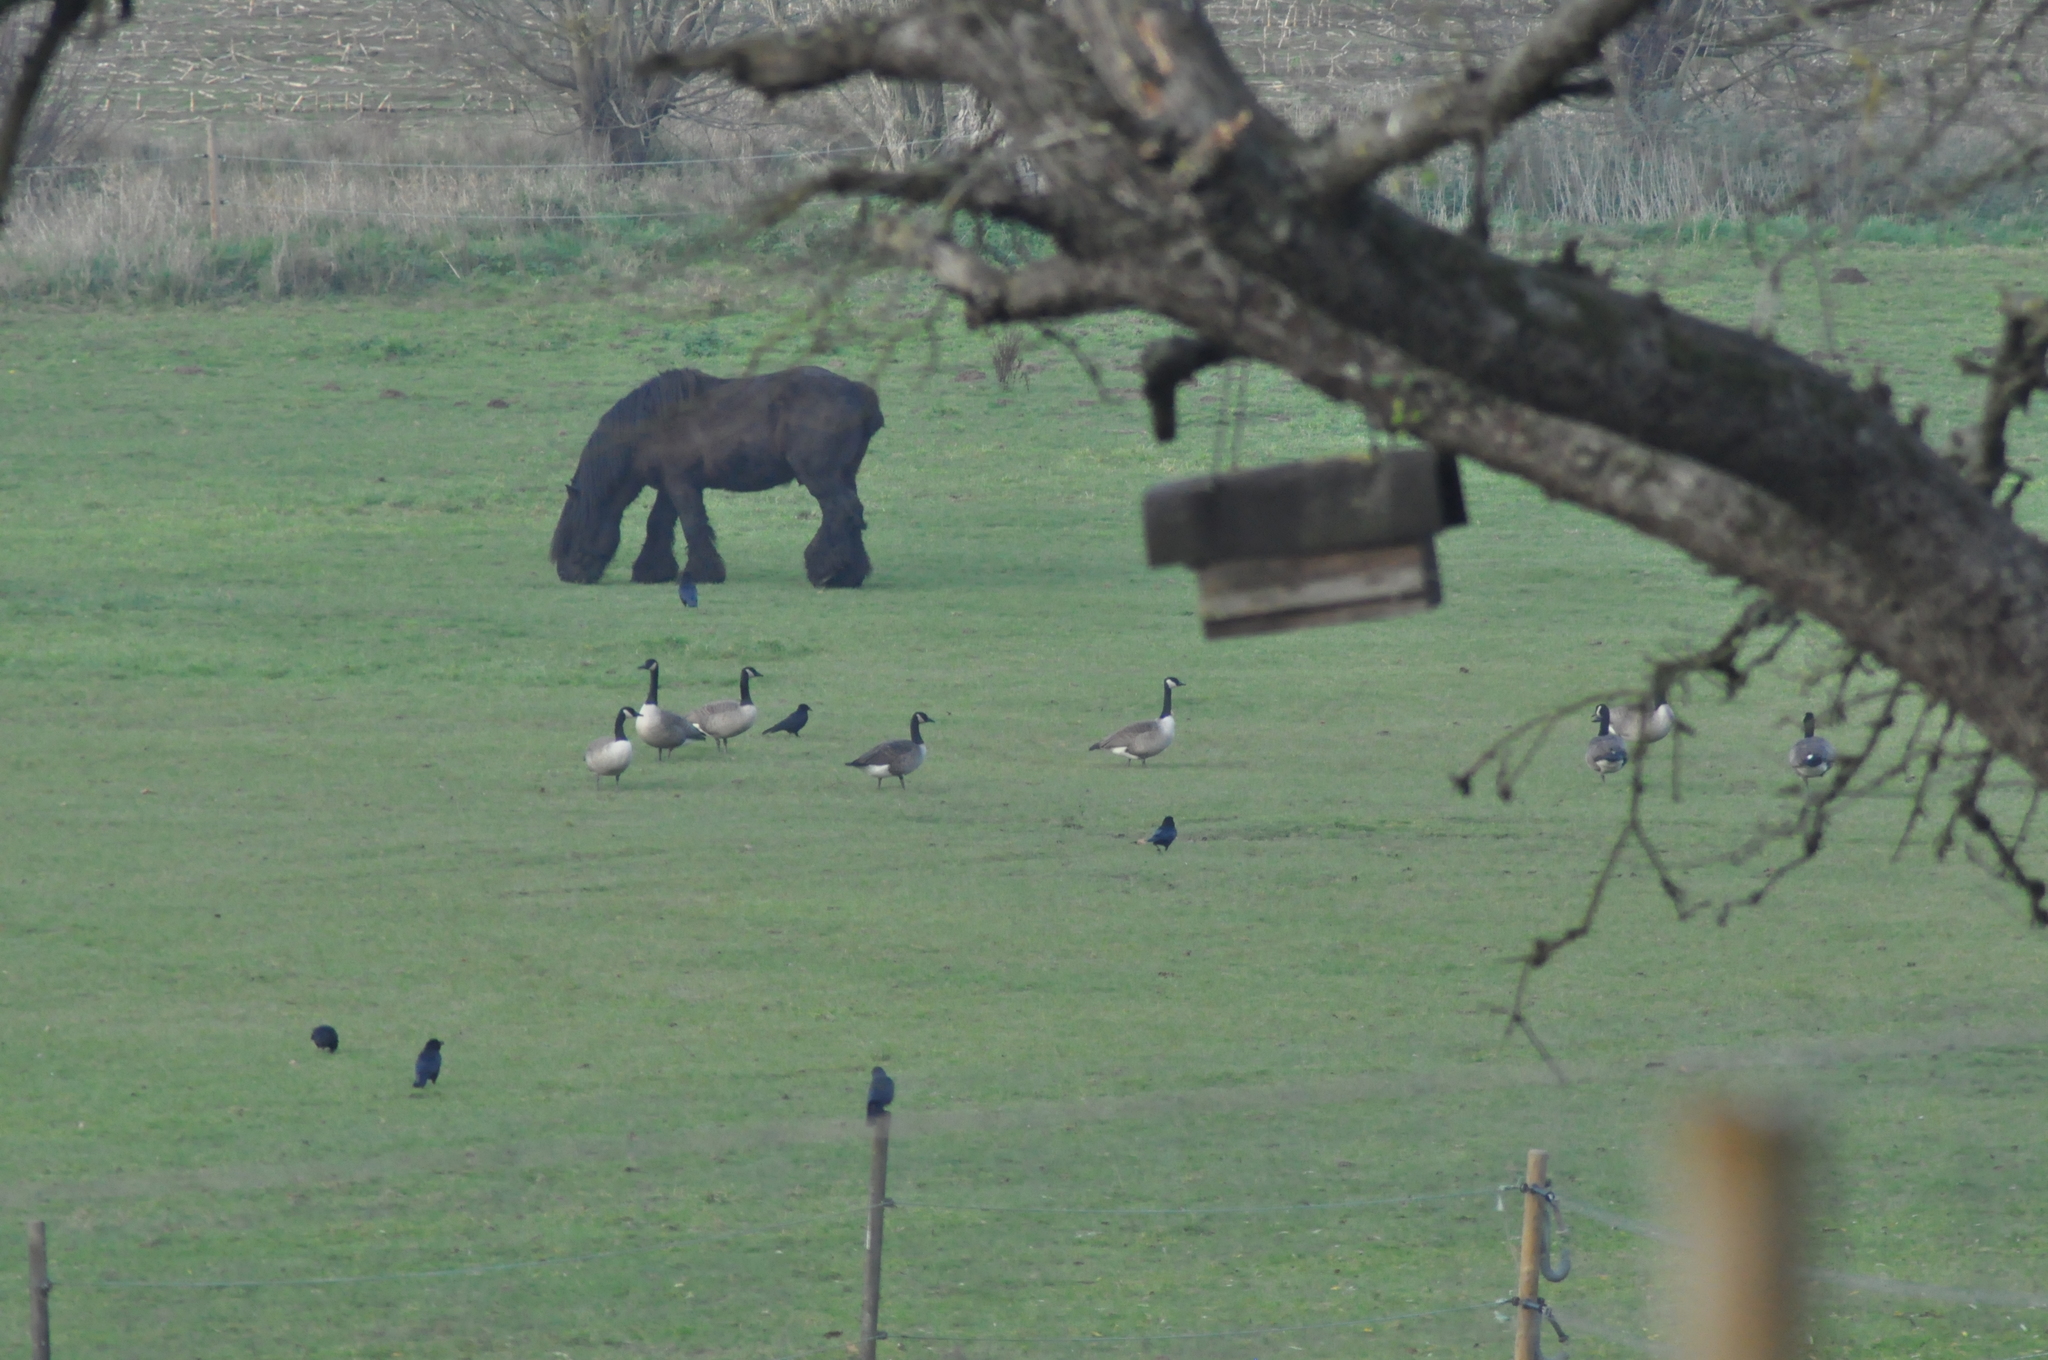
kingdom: Animalia
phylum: Chordata
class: Aves
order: Anseriformes
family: Anatidae
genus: Branta
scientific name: Branta canadensis
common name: Canada goose
